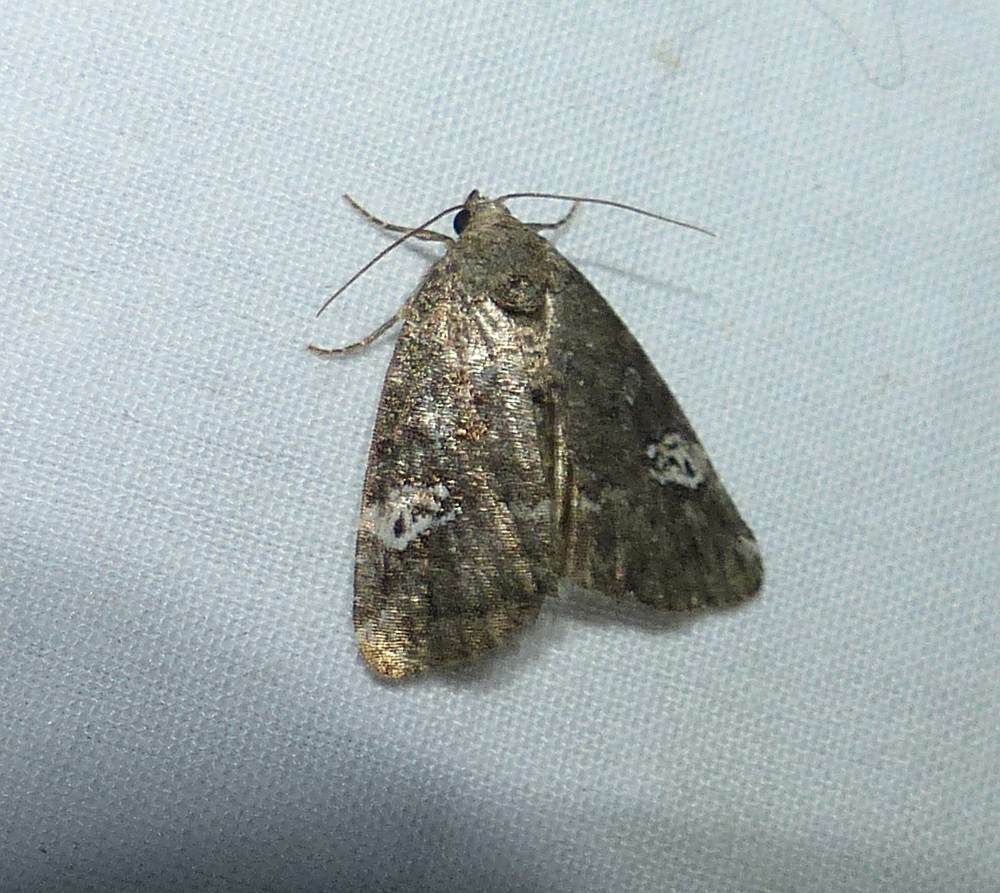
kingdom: Animalia
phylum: Arthropoda
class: Insecta
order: Lepidoptera
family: Noctuidae
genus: Anterastria
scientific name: Anterastria teratophora
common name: Gray marvel moth
